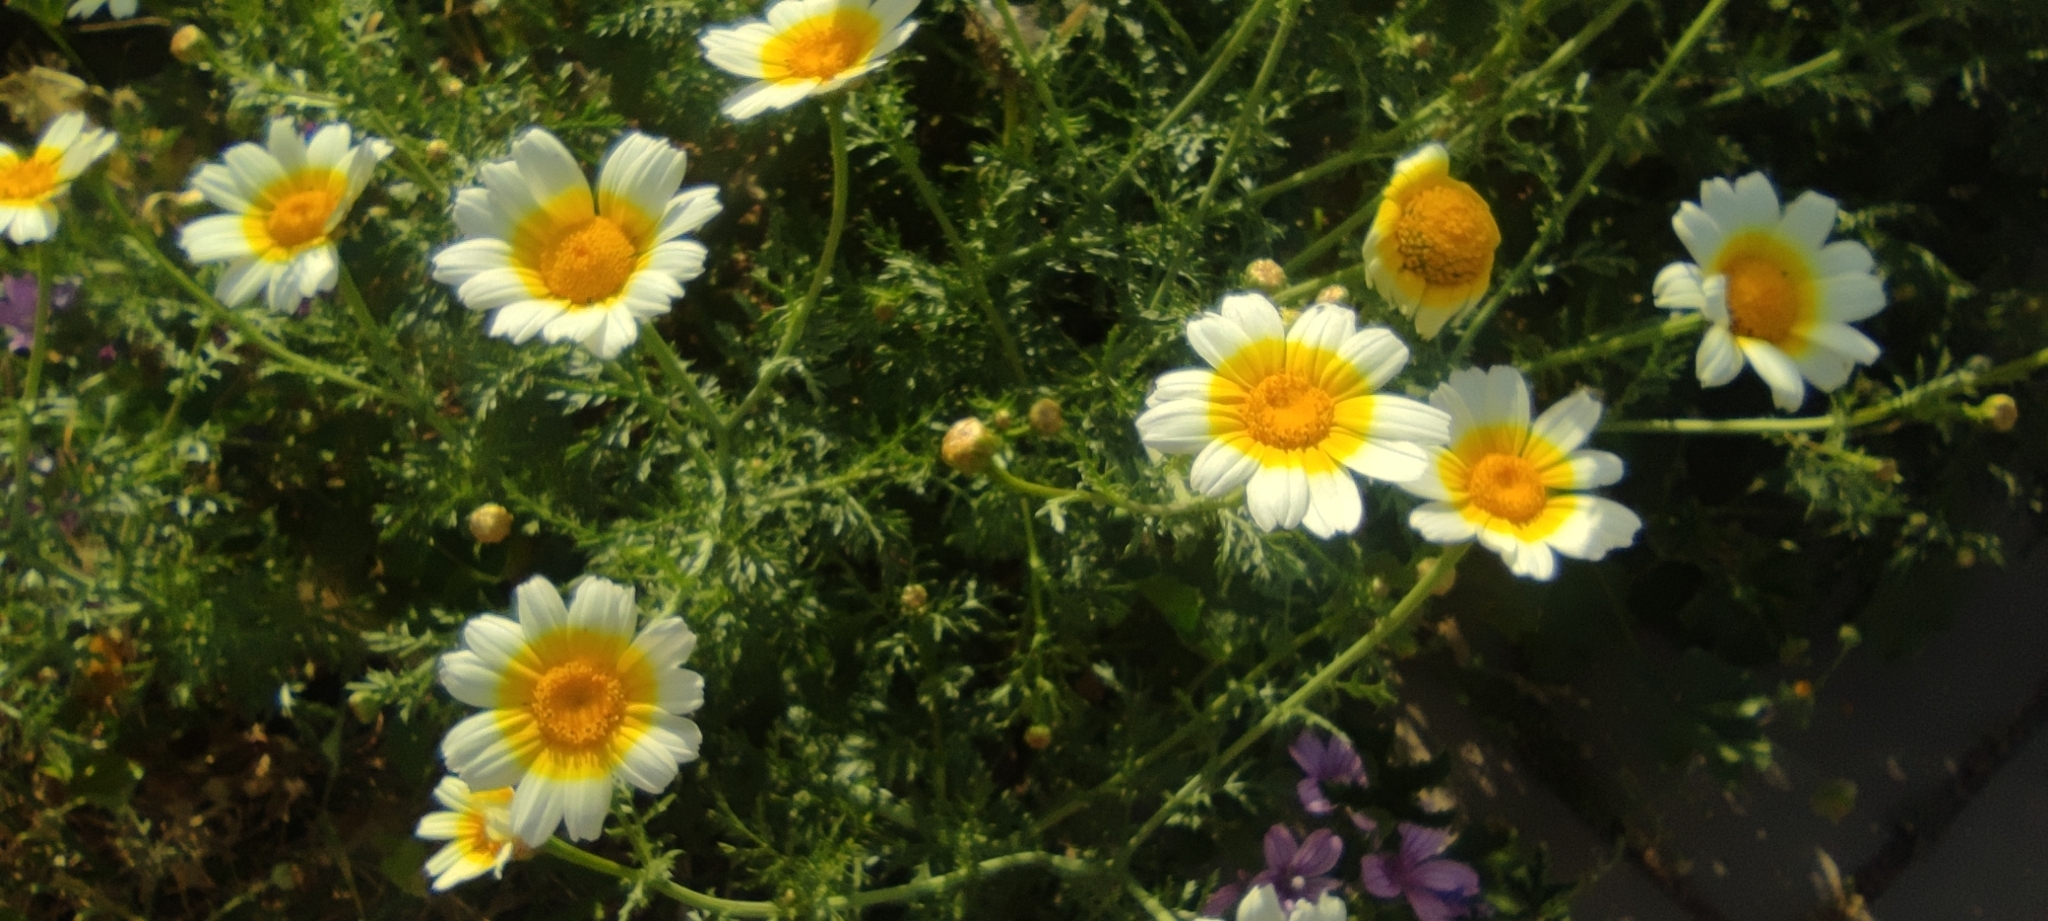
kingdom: Plantae
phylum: Tracheophyta
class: Magnoliopsida
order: Asterales
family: Asteraceae
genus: Glebionis
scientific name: Glebionis coronaria
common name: Crowndaisy
